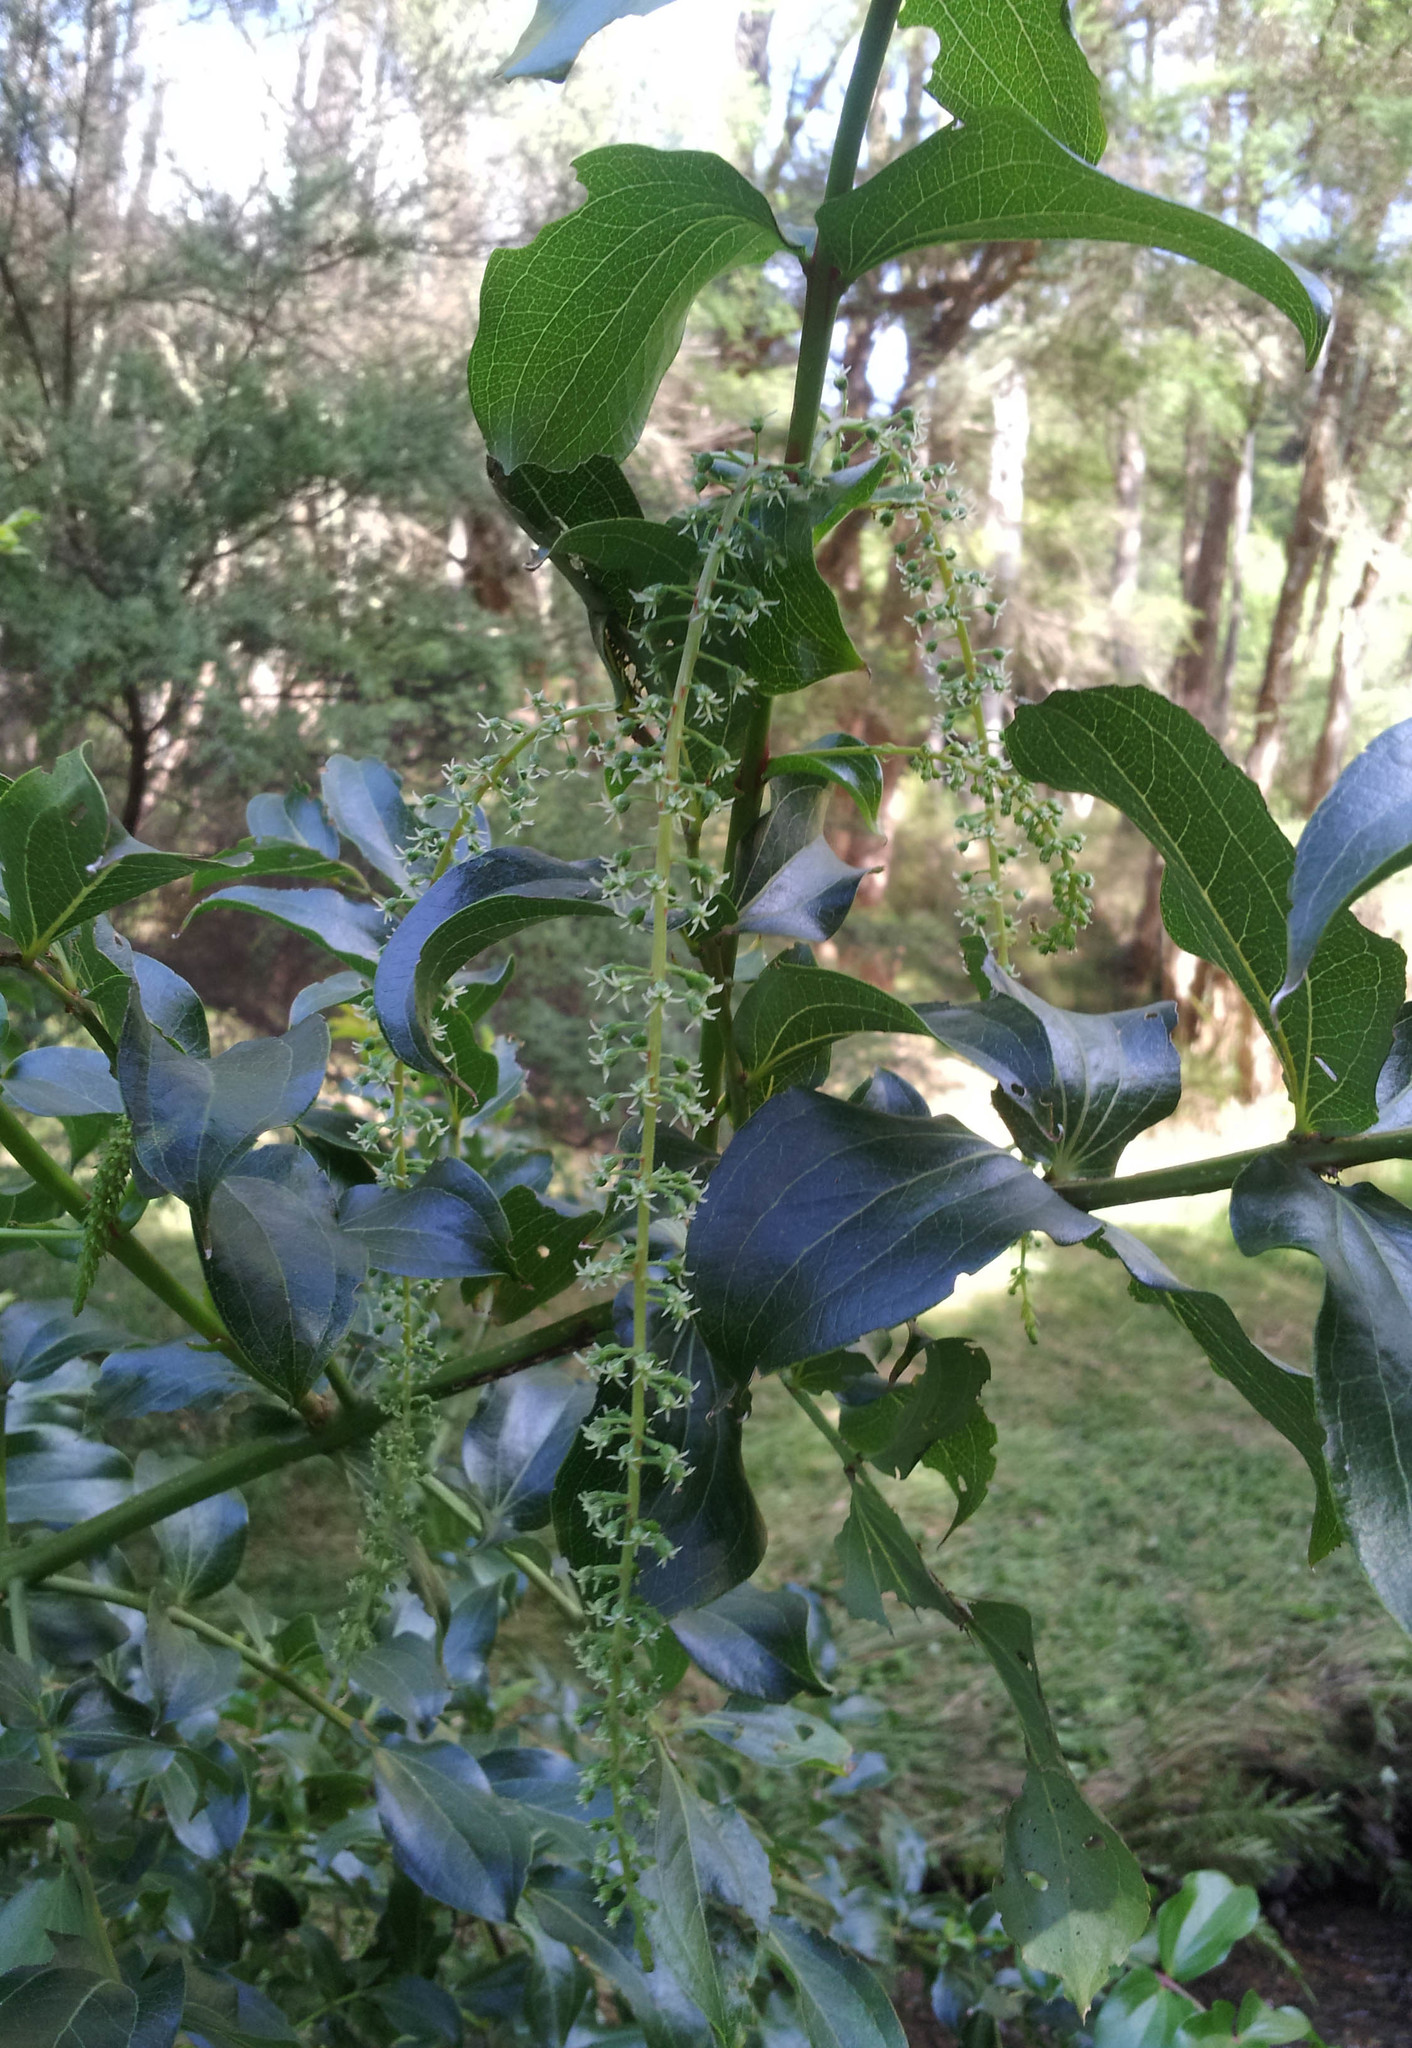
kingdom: Plantae
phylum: Tracheophyta
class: Magnoliopsida
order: Cucurbitales
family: Coriariaceae
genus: Coriaria
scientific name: Coriaria arborea
